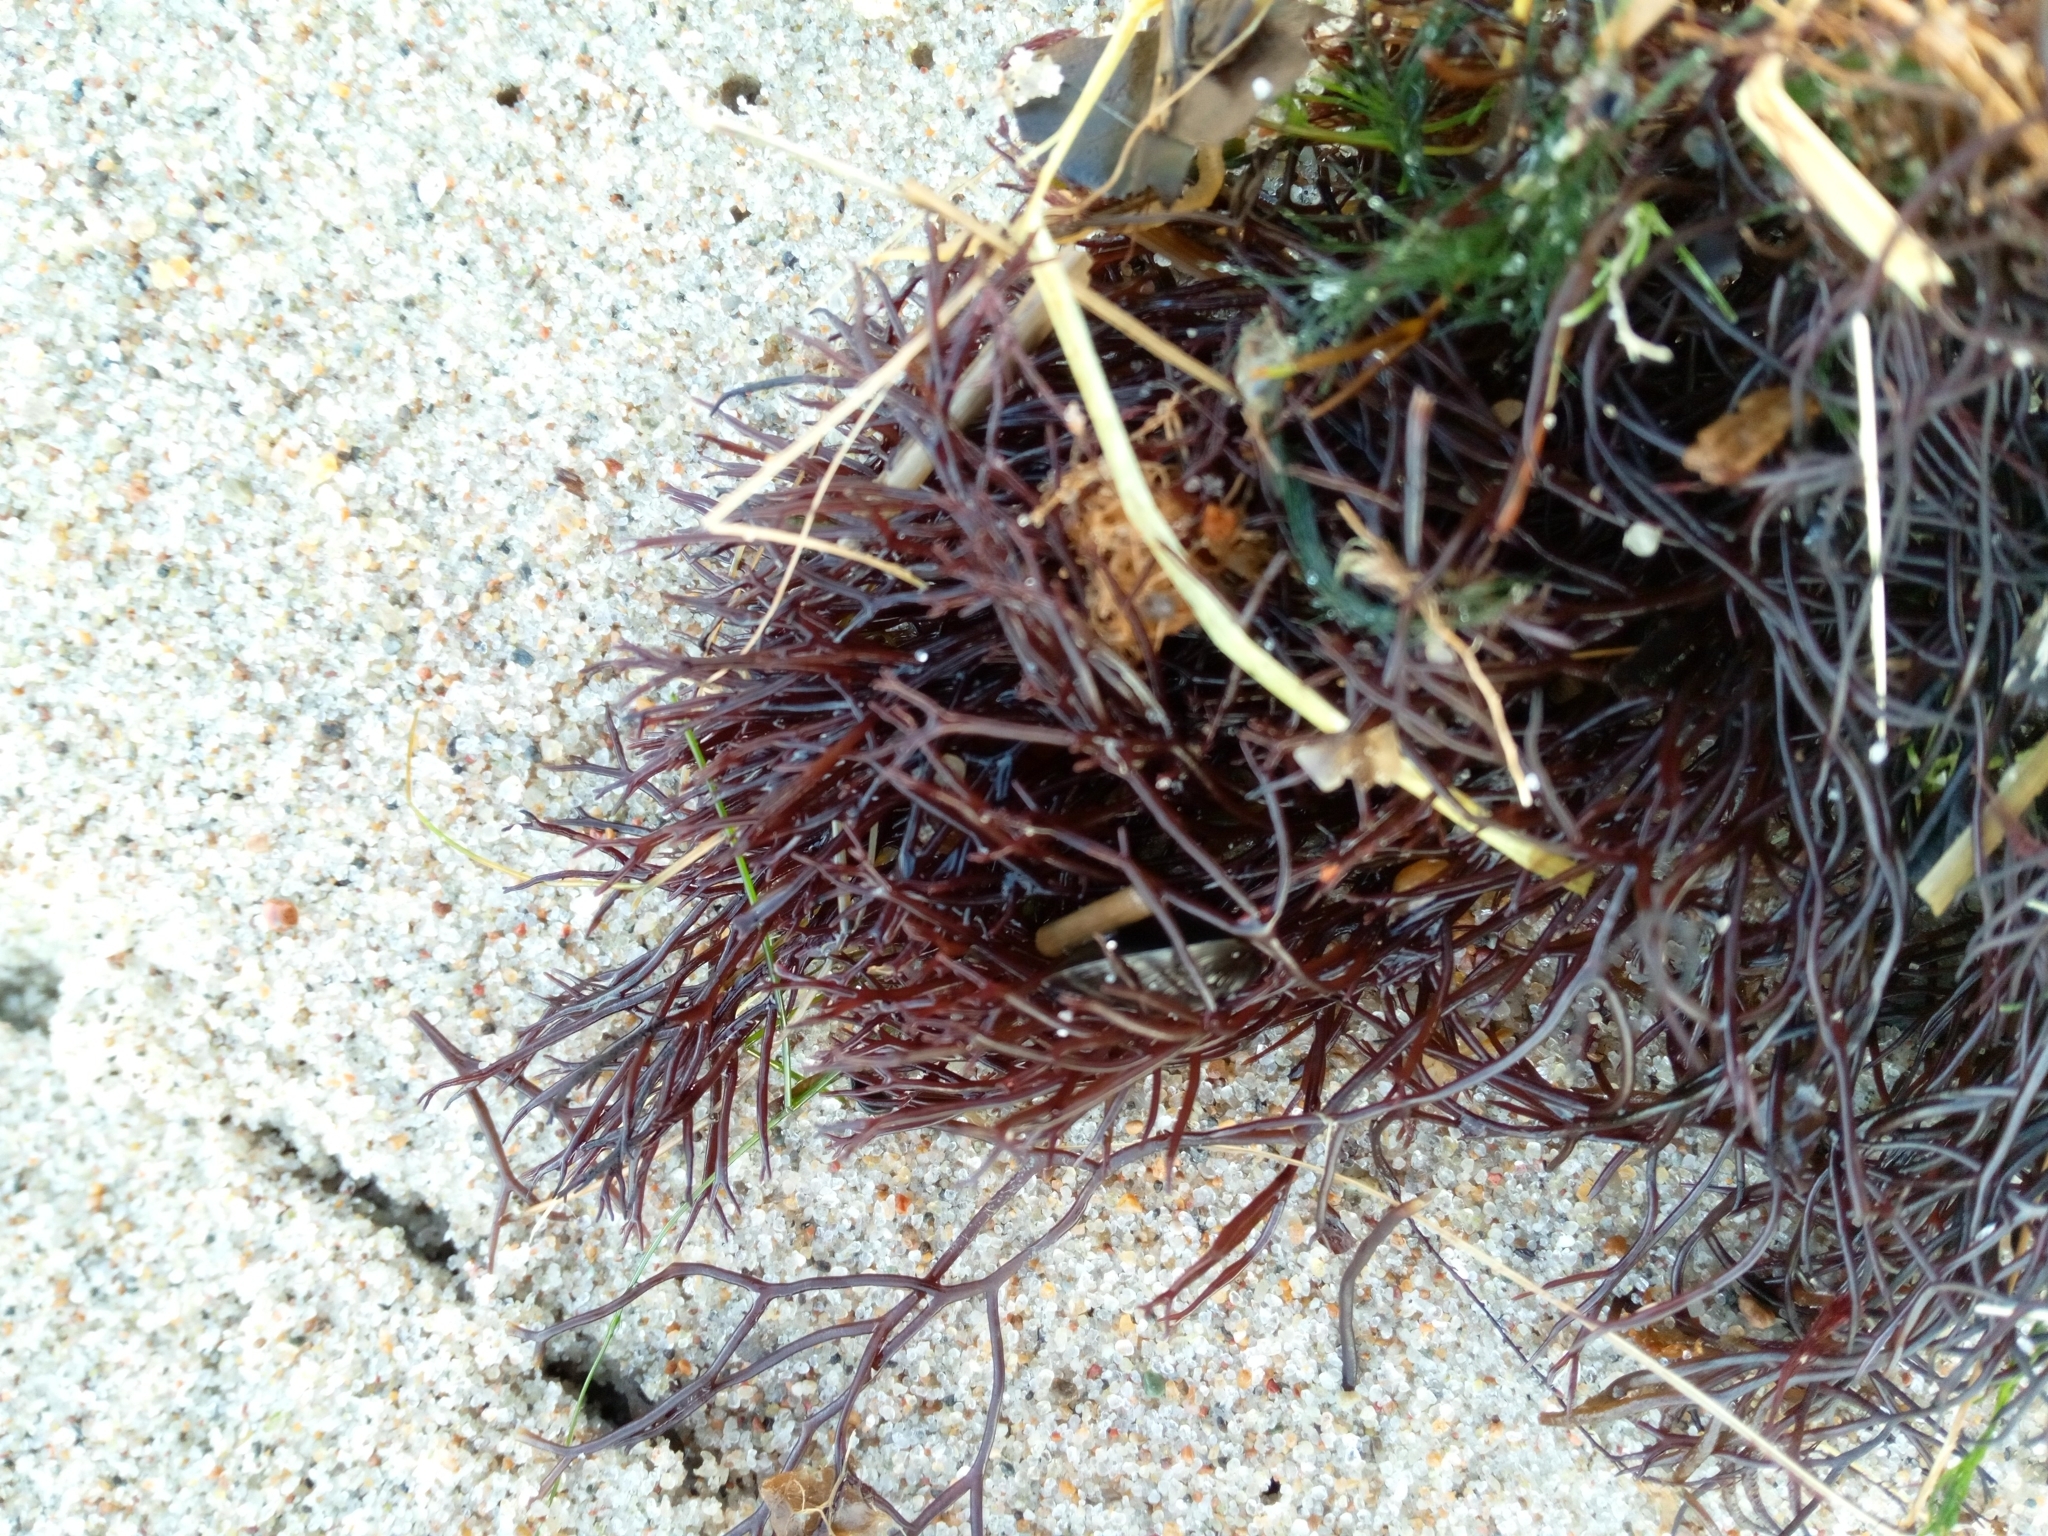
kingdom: Plantae
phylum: Rhodophyta
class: Florideophyceae
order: Gigartinales
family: Furcellariaceae
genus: Furcellaria
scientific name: Furcellaria lumbricalis
